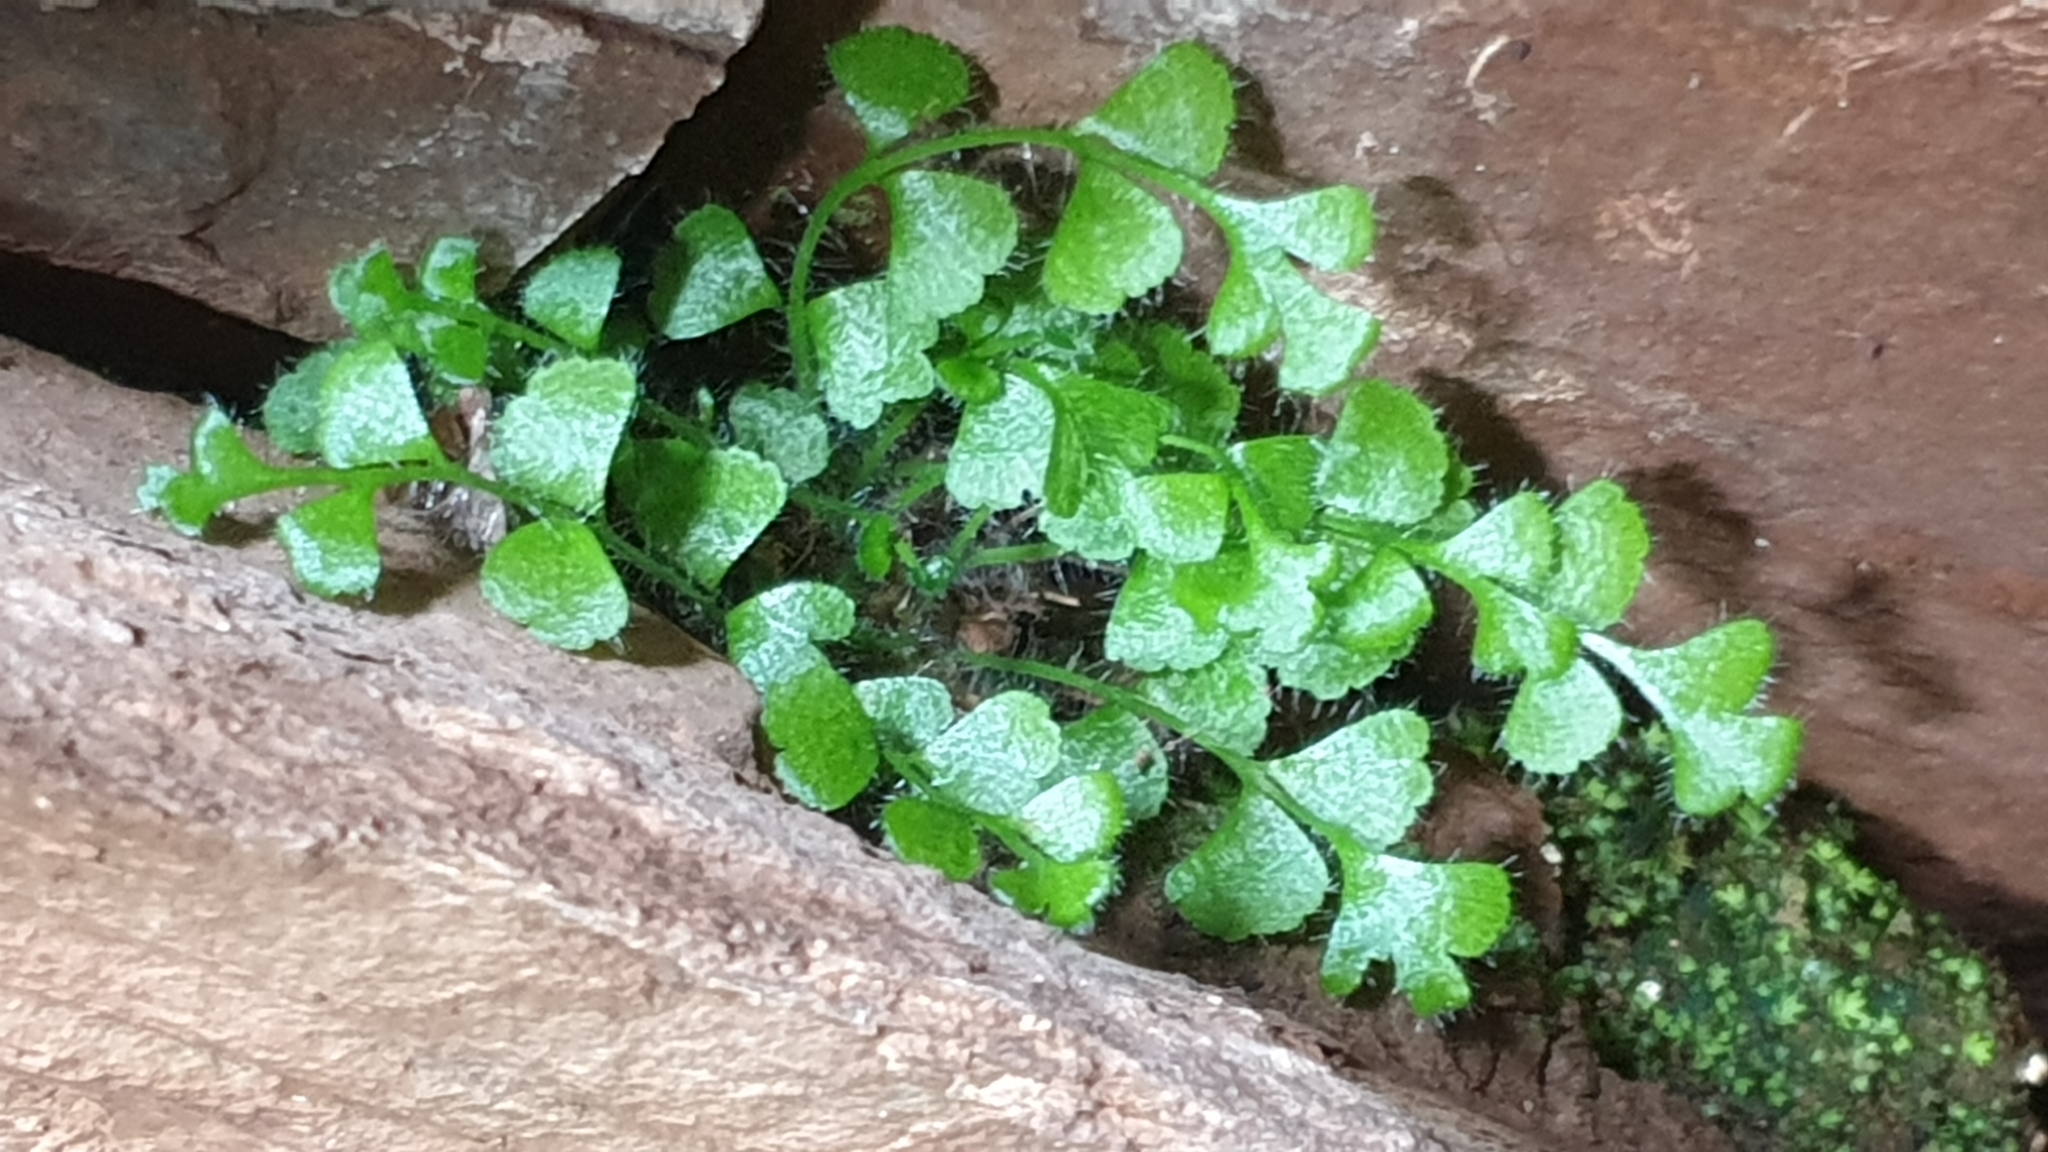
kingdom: Plantae
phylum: Tracheophyta
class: Polypodiopsida
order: Polypodiales
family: Aspleniaceae
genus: Asplenium
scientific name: Asplenium subglandulosum
